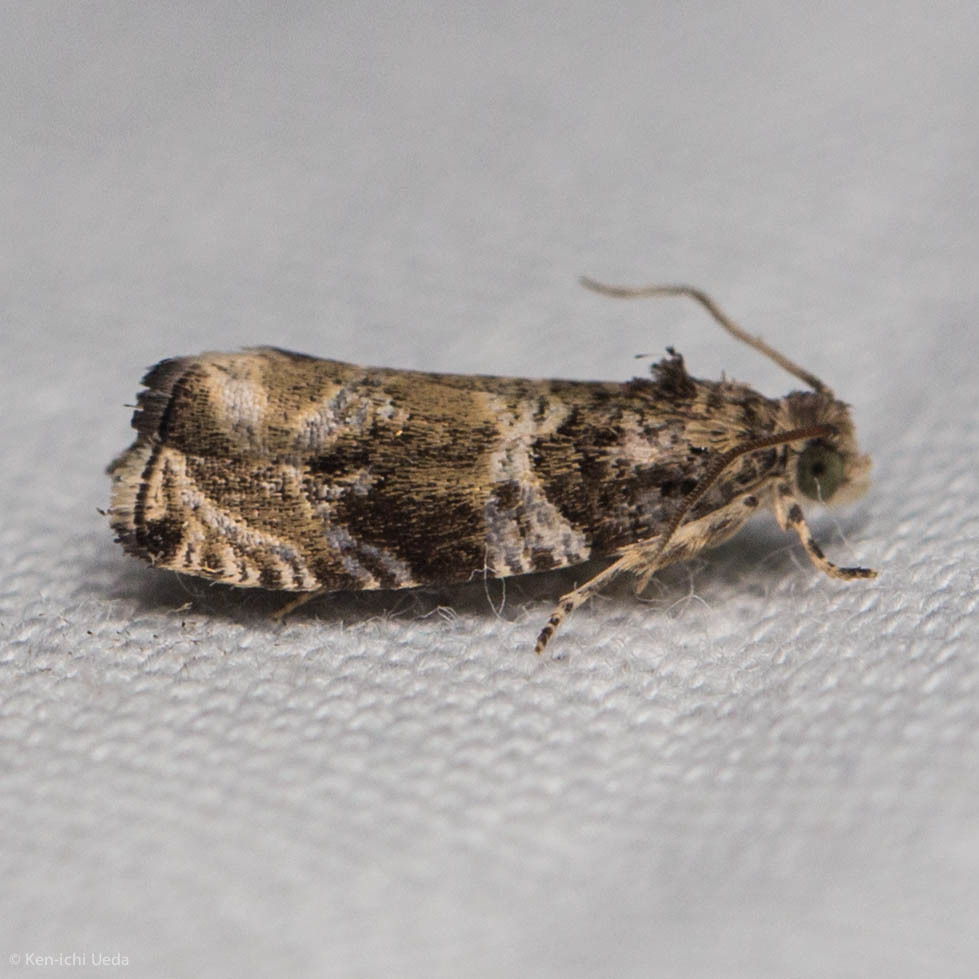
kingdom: Animalia
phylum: Arthropoda
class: Insecta
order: Lepidoptera
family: Tortricidae
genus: Olethreutes
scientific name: Olethreutes appendiceum
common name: Serviceberry leafroller
